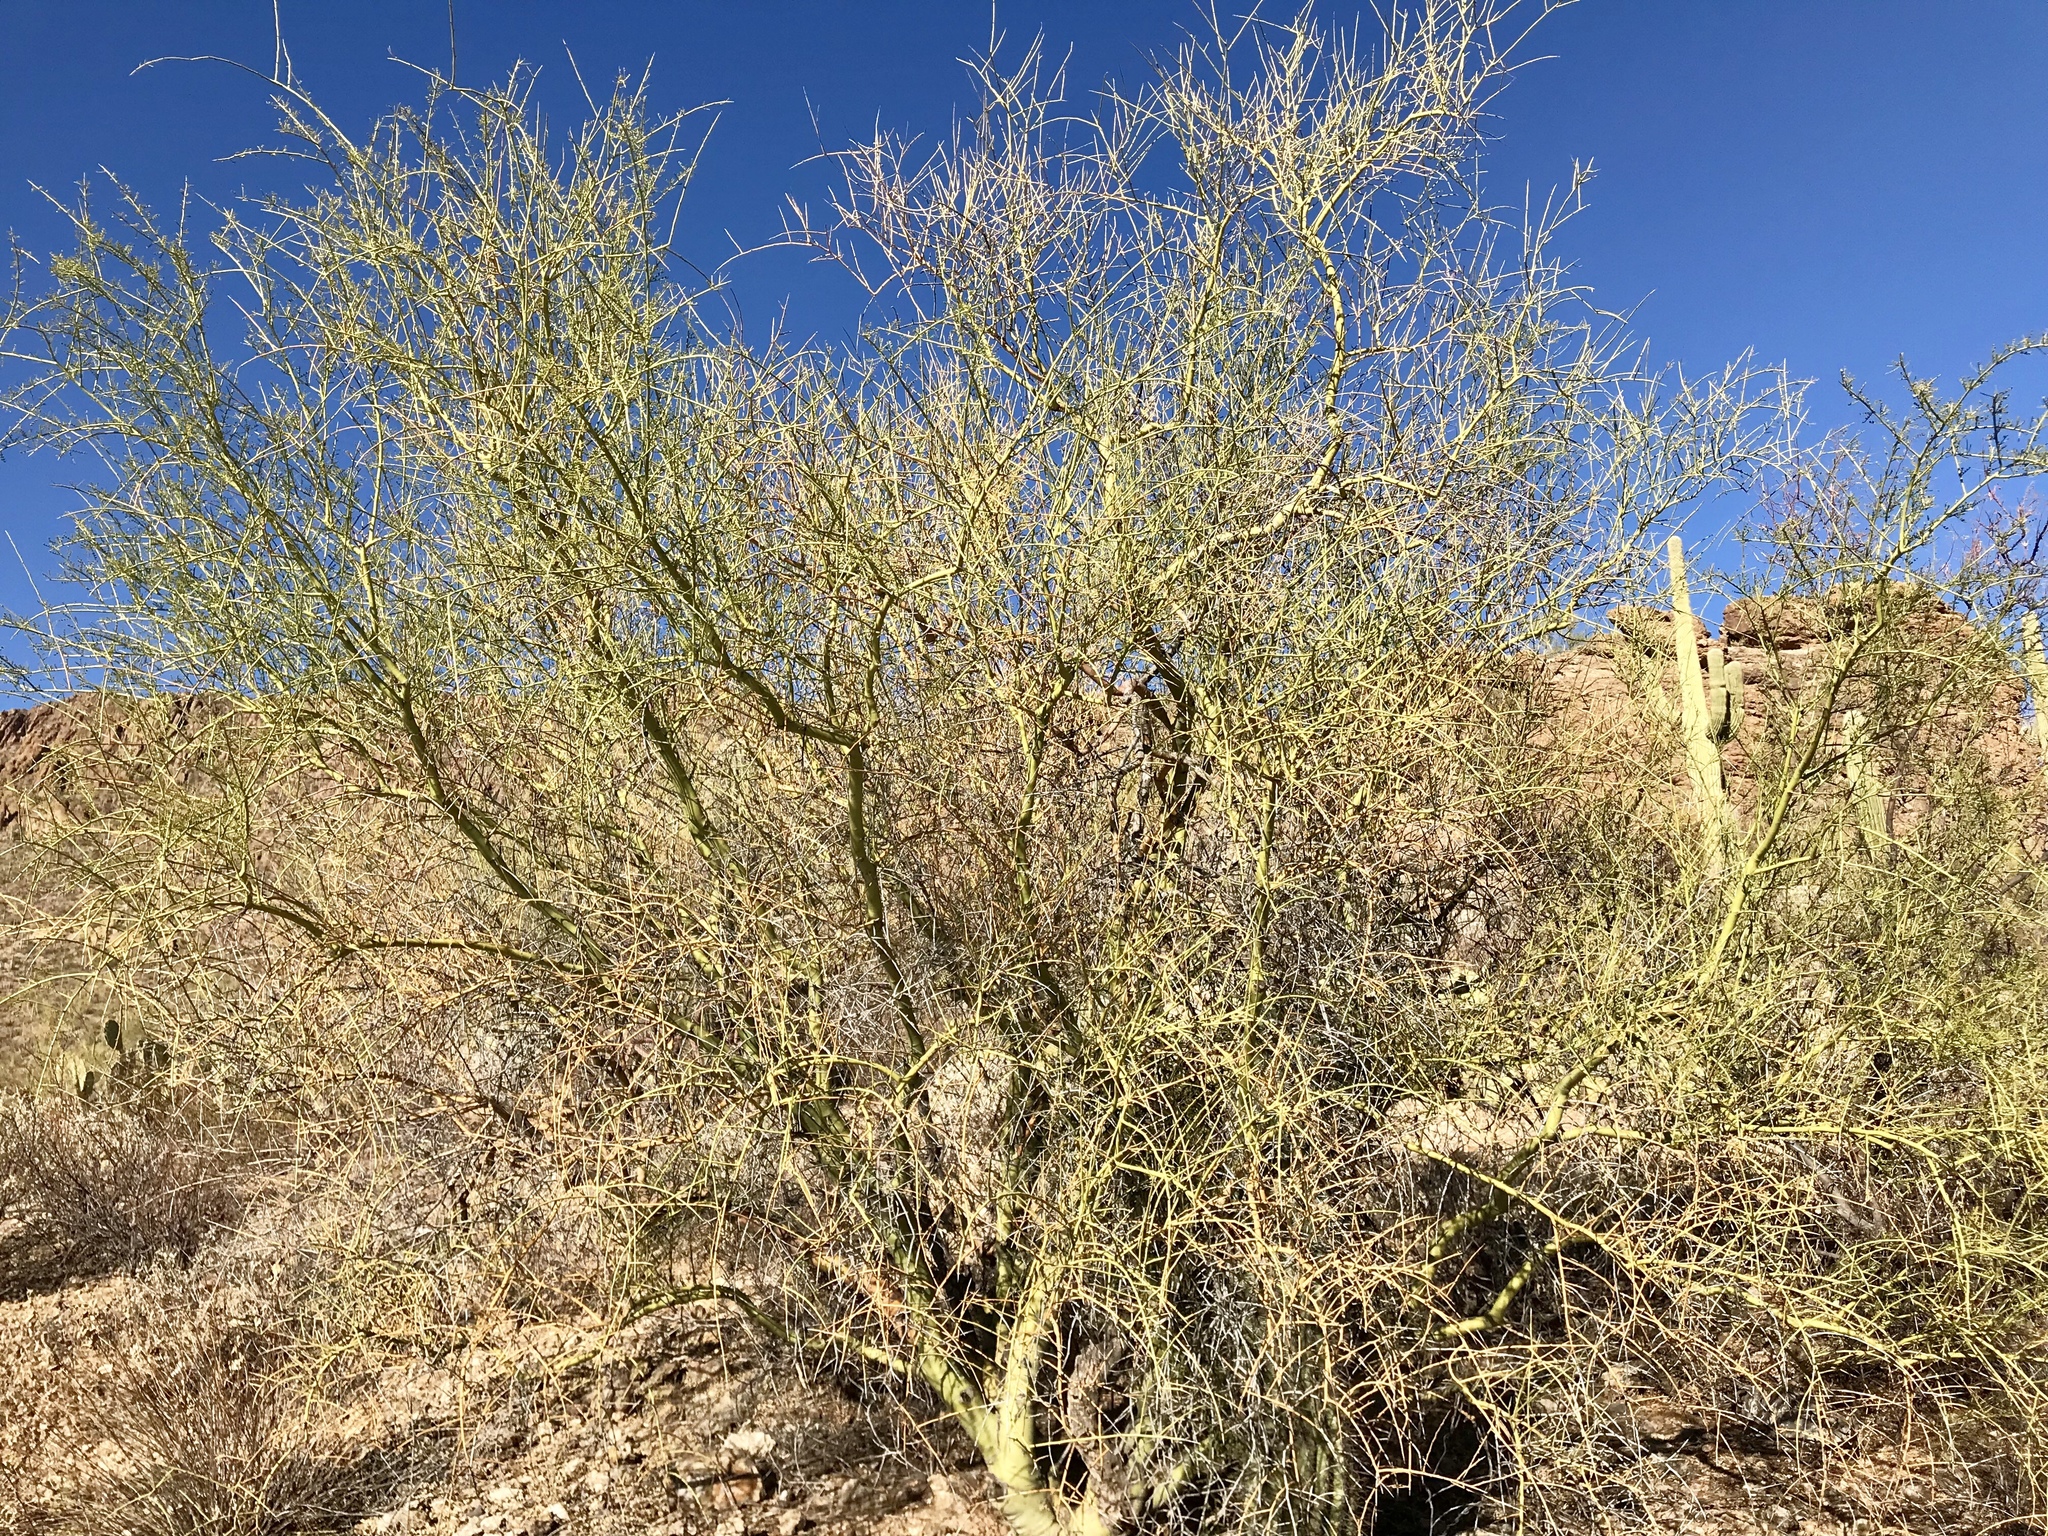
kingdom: Plantae
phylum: Tracheophyta
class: Magnoliopsida
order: Fabales
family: Fabaceae
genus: Parkinsonia
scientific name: Parkinsonia microphylla
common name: Yellow paloverde
